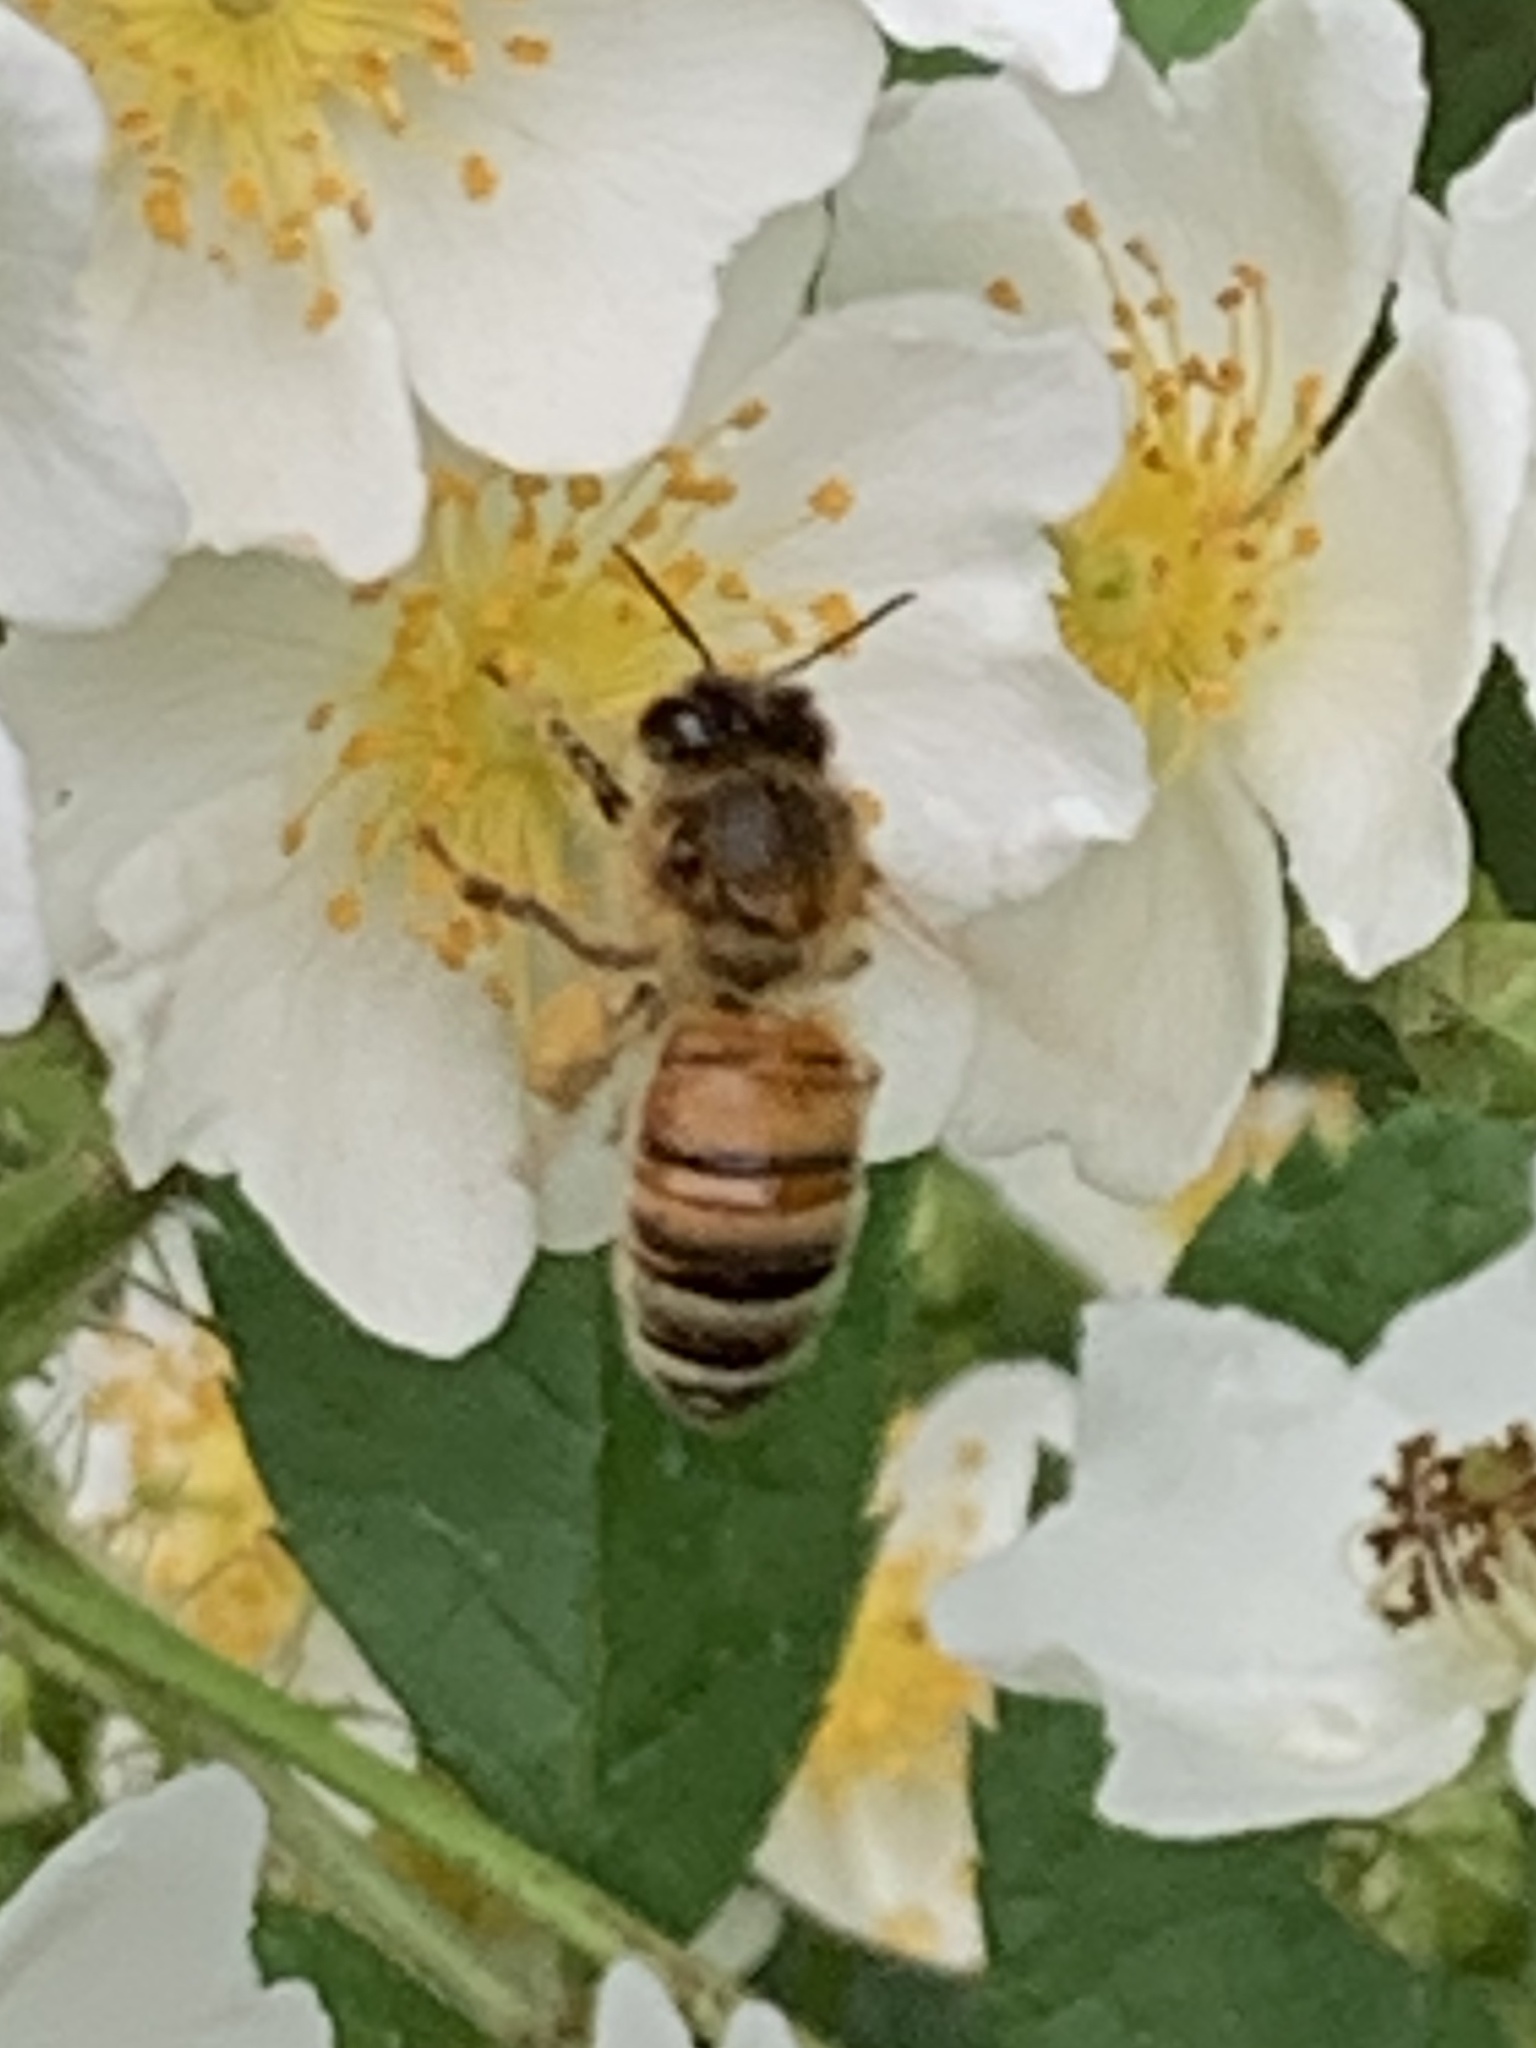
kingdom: Animalia
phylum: Arthropoda
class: Insecta
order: Hymenoptera
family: Apidae
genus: Apis
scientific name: Apis mellifera
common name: Honey bee
